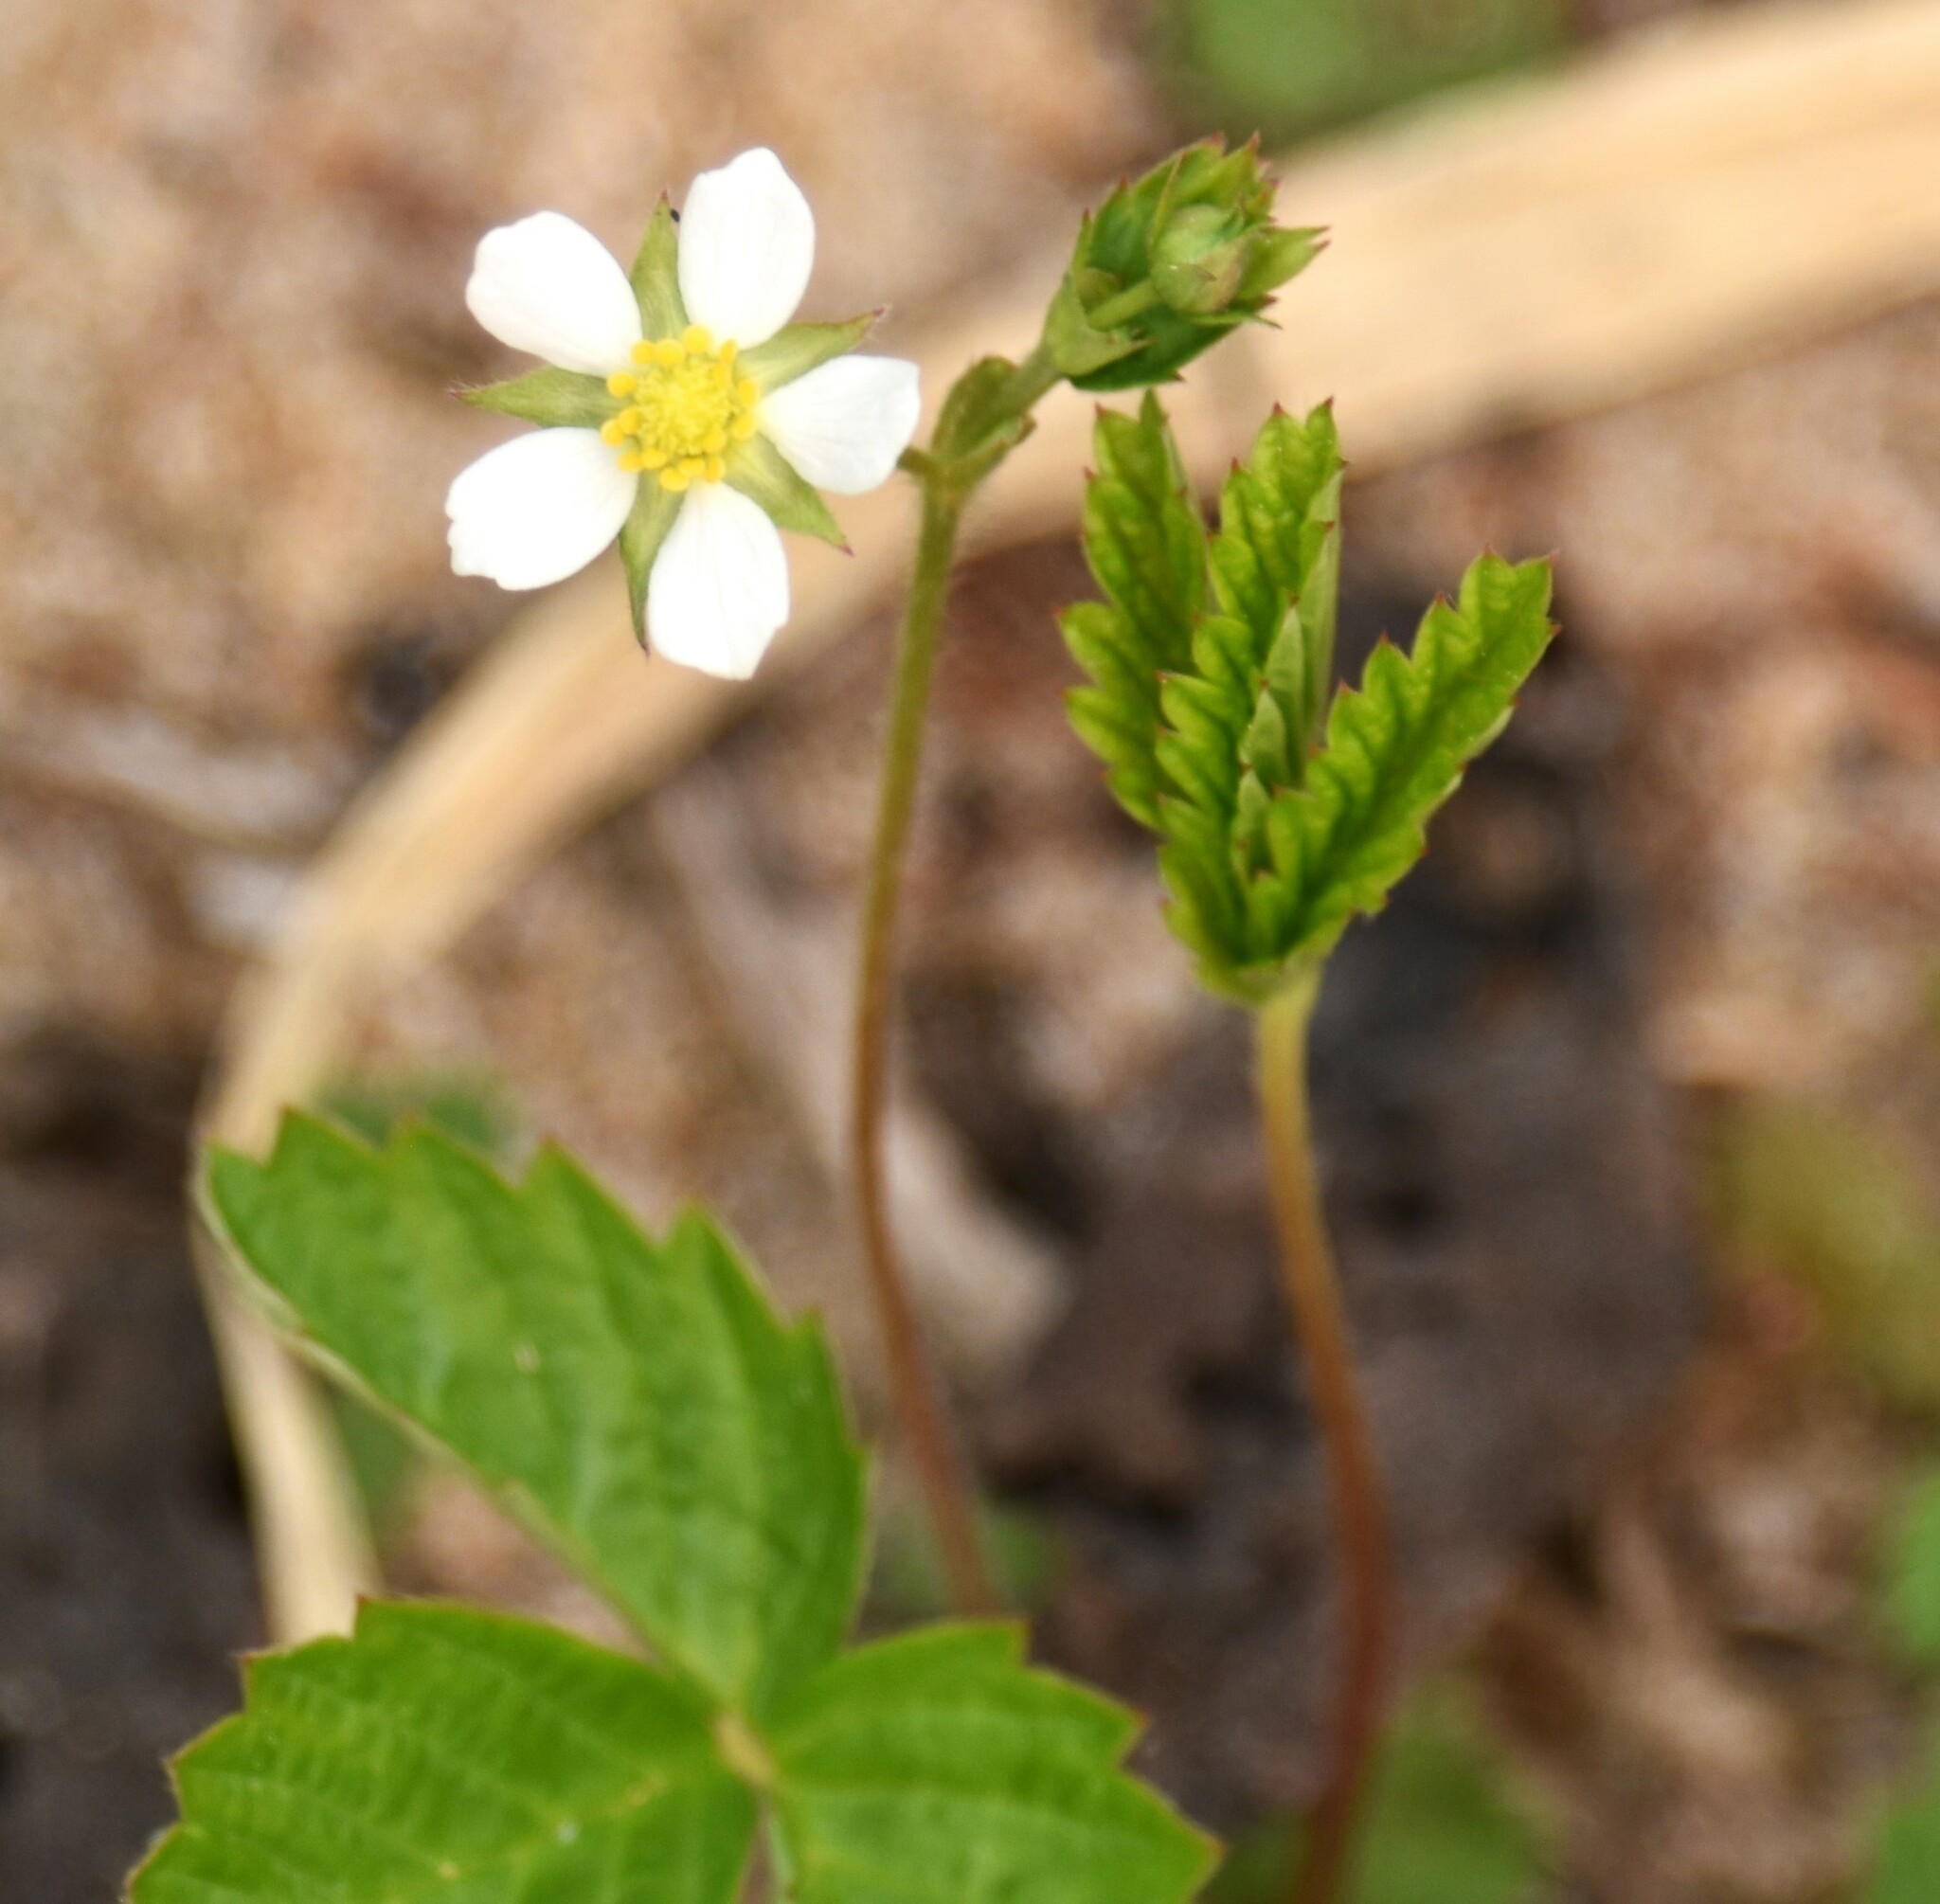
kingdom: Plantae
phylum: Tracheophyta
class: Magnoliopsida
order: Rosales
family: Rosaceae
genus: Fragaria
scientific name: Fragaria virginiana
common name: Thickleaved wild strawberry
